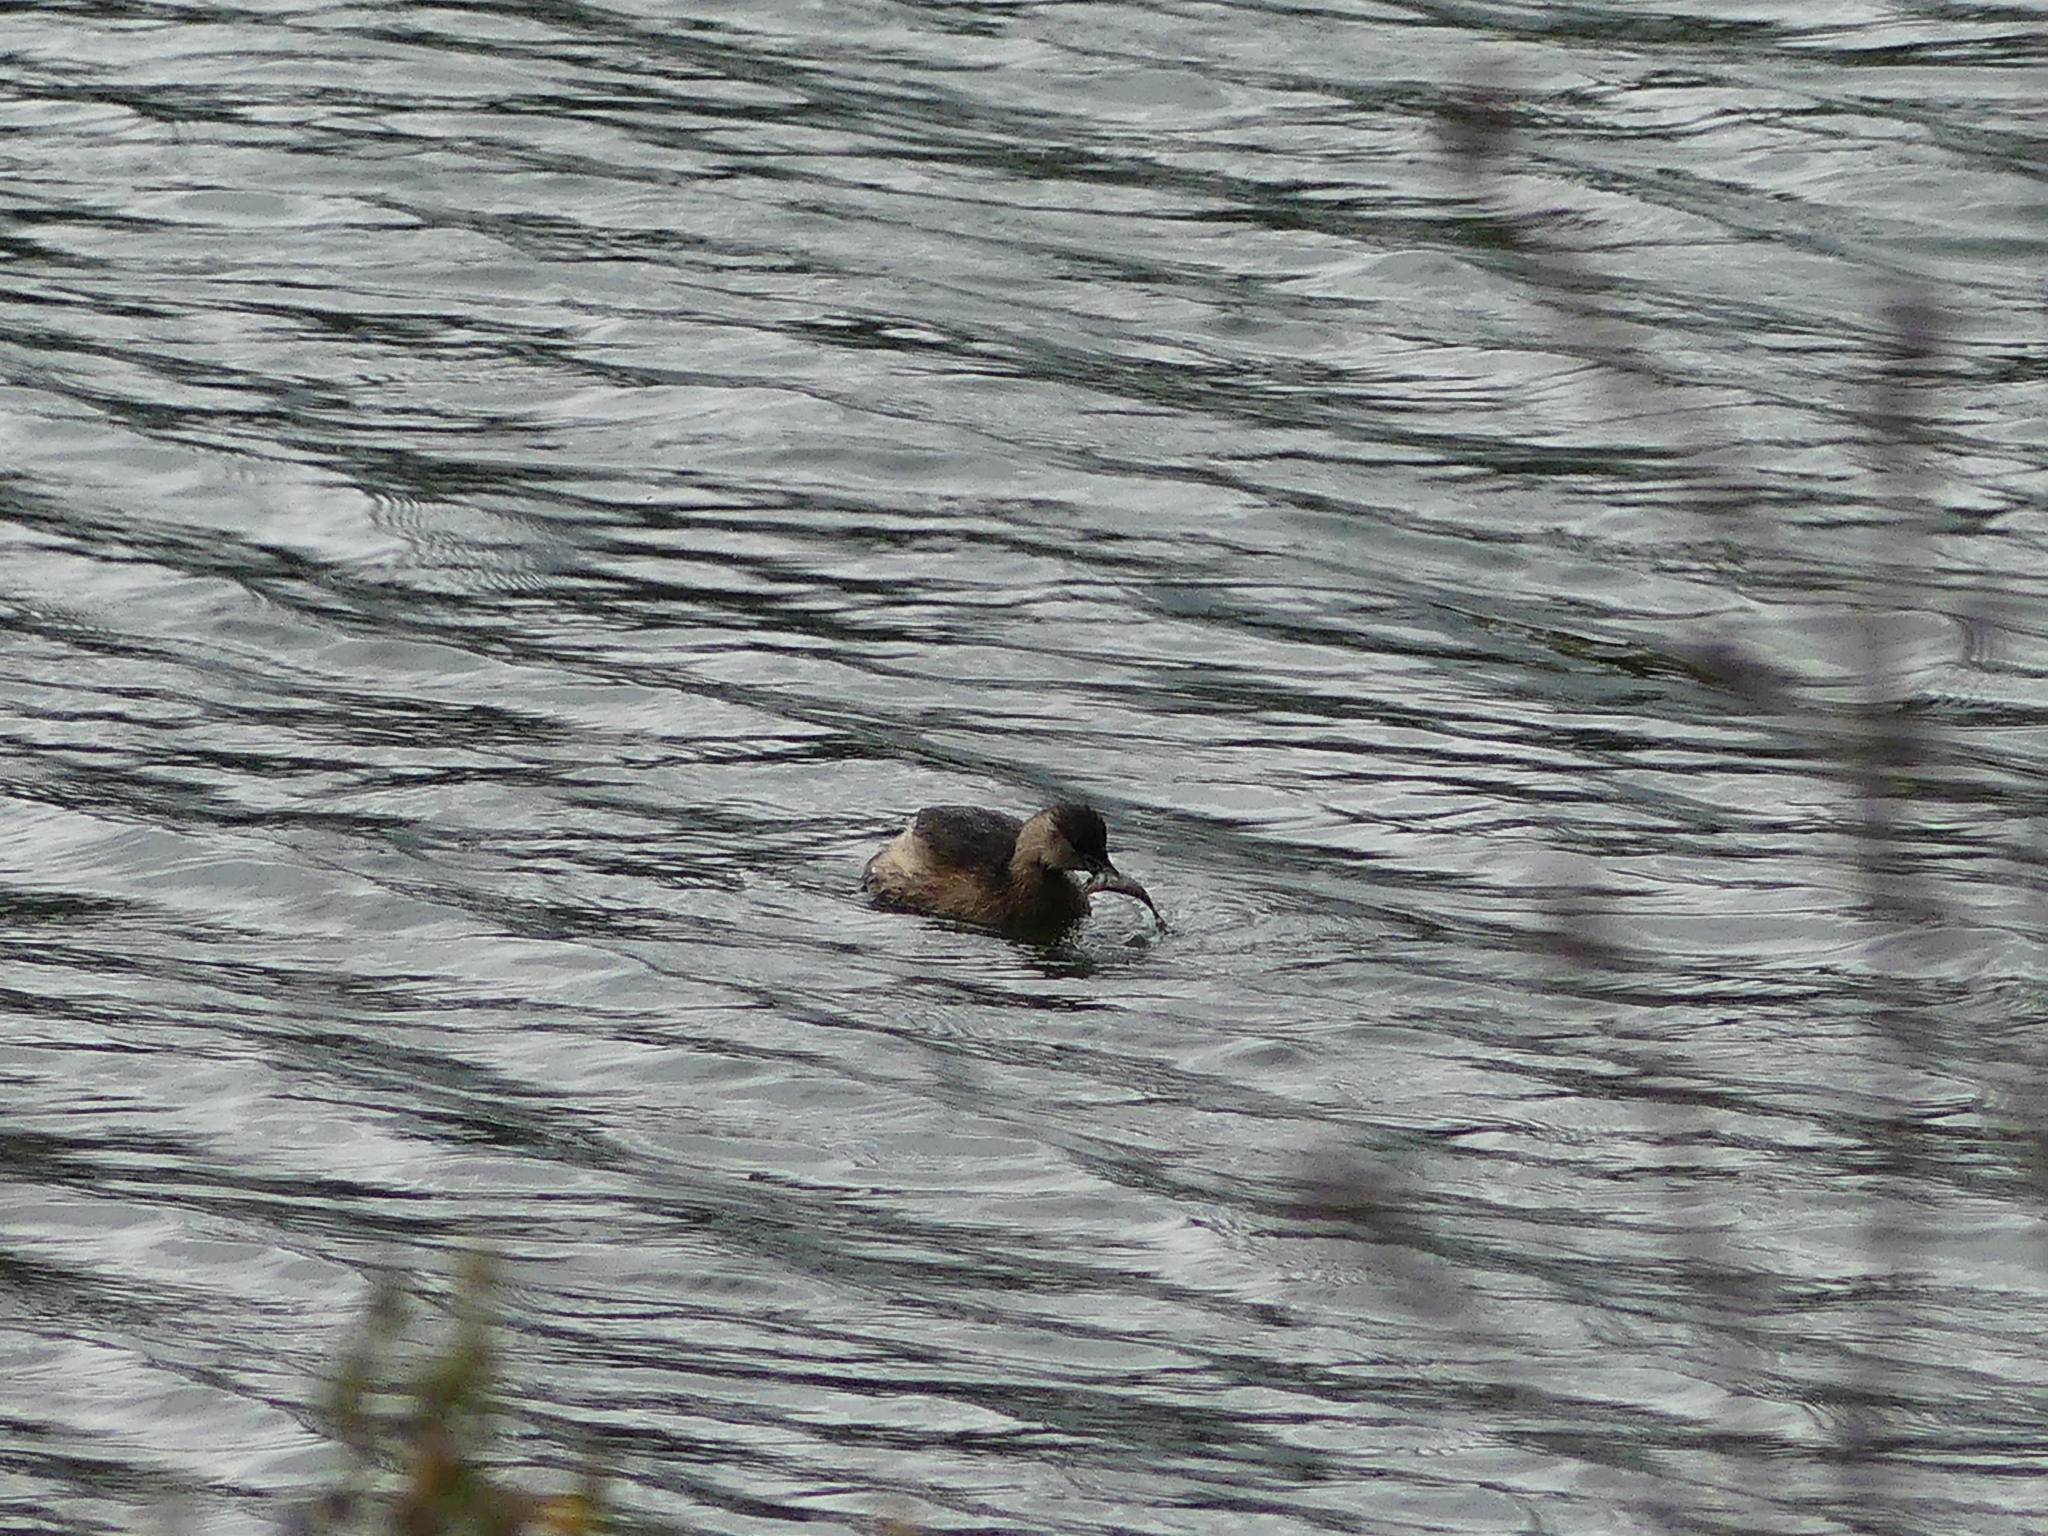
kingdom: Animalia
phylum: Chordata
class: Aves
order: Podicipediformes
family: Podicipedidae
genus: Tachybaptus
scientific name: Tachybaptus ruficollis
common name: Little grebe
